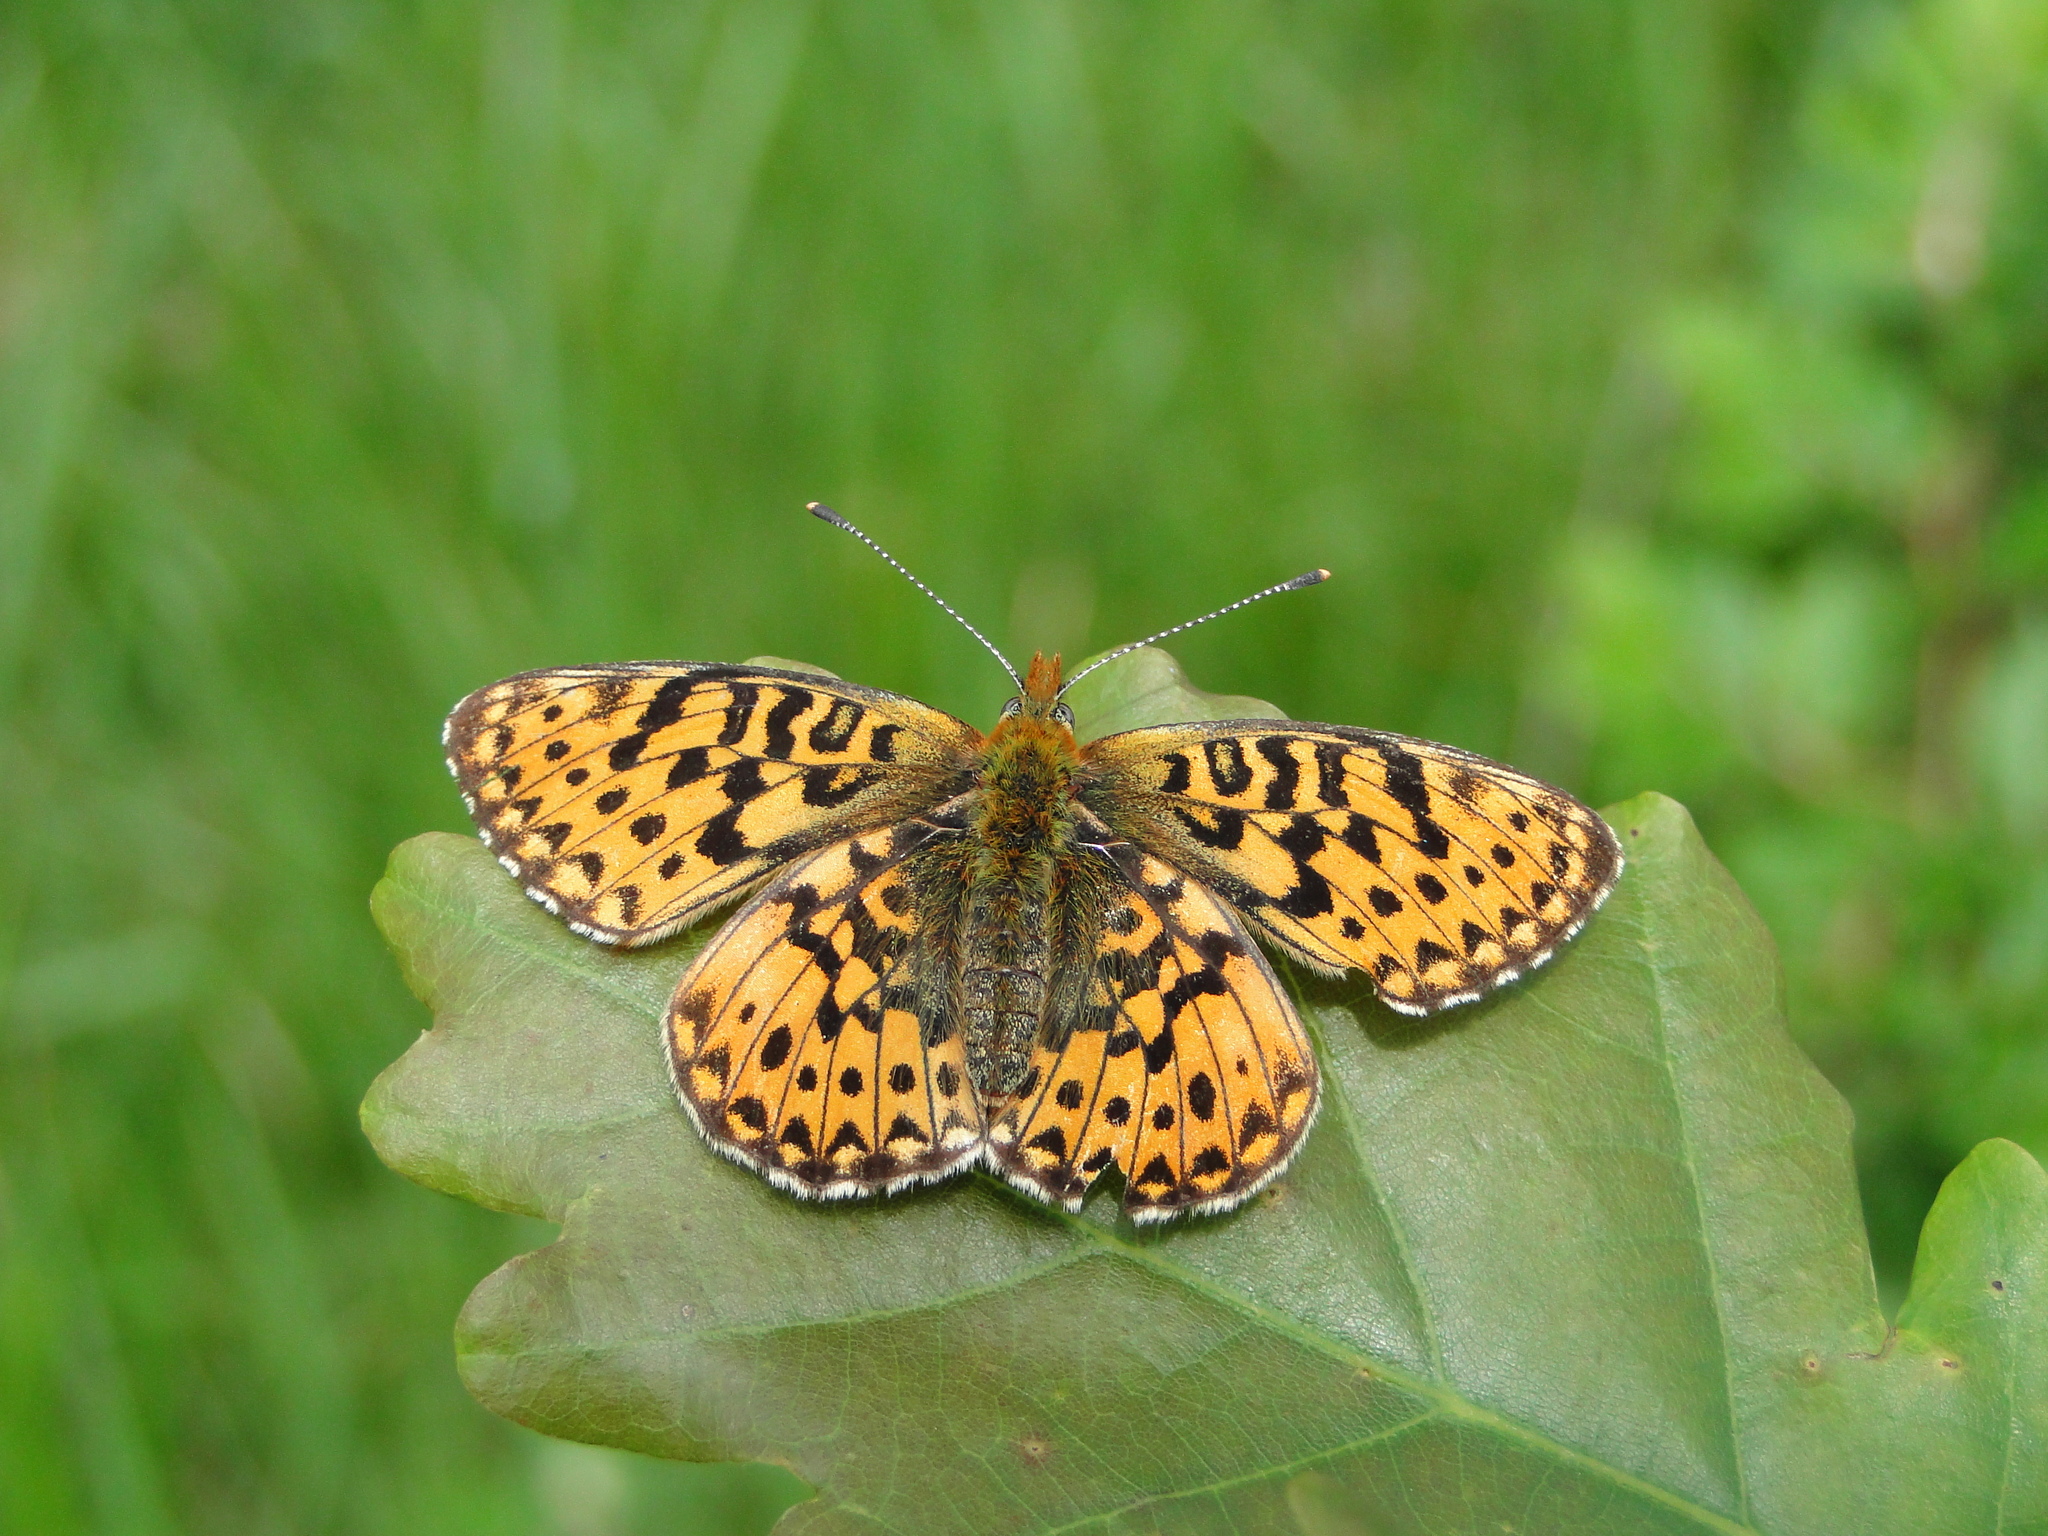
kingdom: Animalia
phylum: Arthropoda
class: Insecta
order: Lepidoptera
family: Nymphalidae
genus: Clossiana
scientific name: Clossiana euphrosyne
